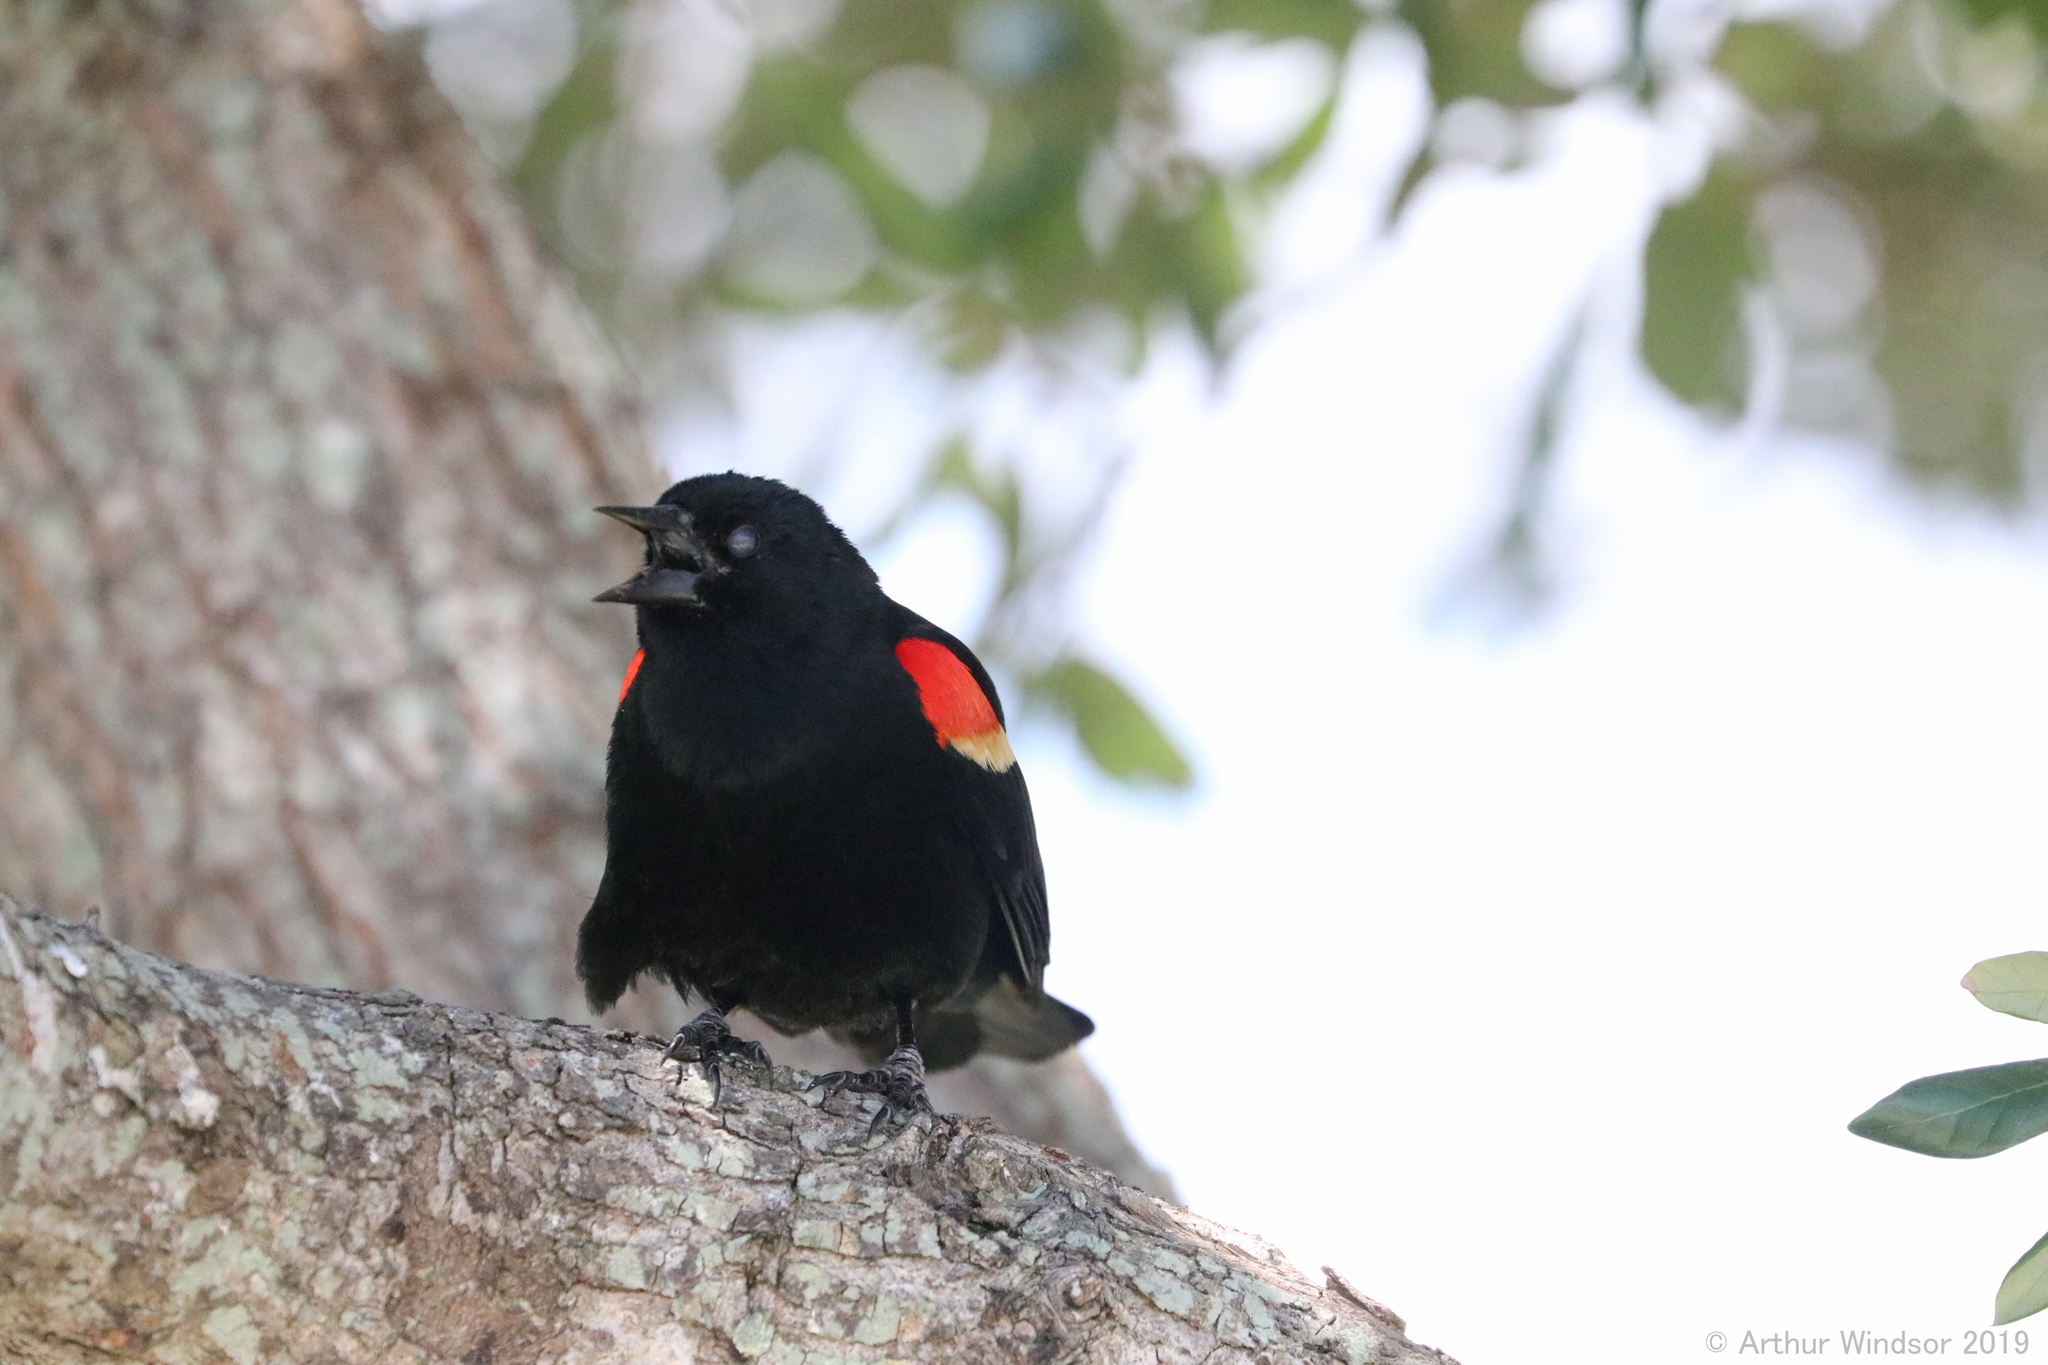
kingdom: Animalia
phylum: Chordata
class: Aves
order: Passeriformes
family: Icteridae
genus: Agelaius
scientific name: Agelaius phoeniceus
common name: Red-winged blackbird
